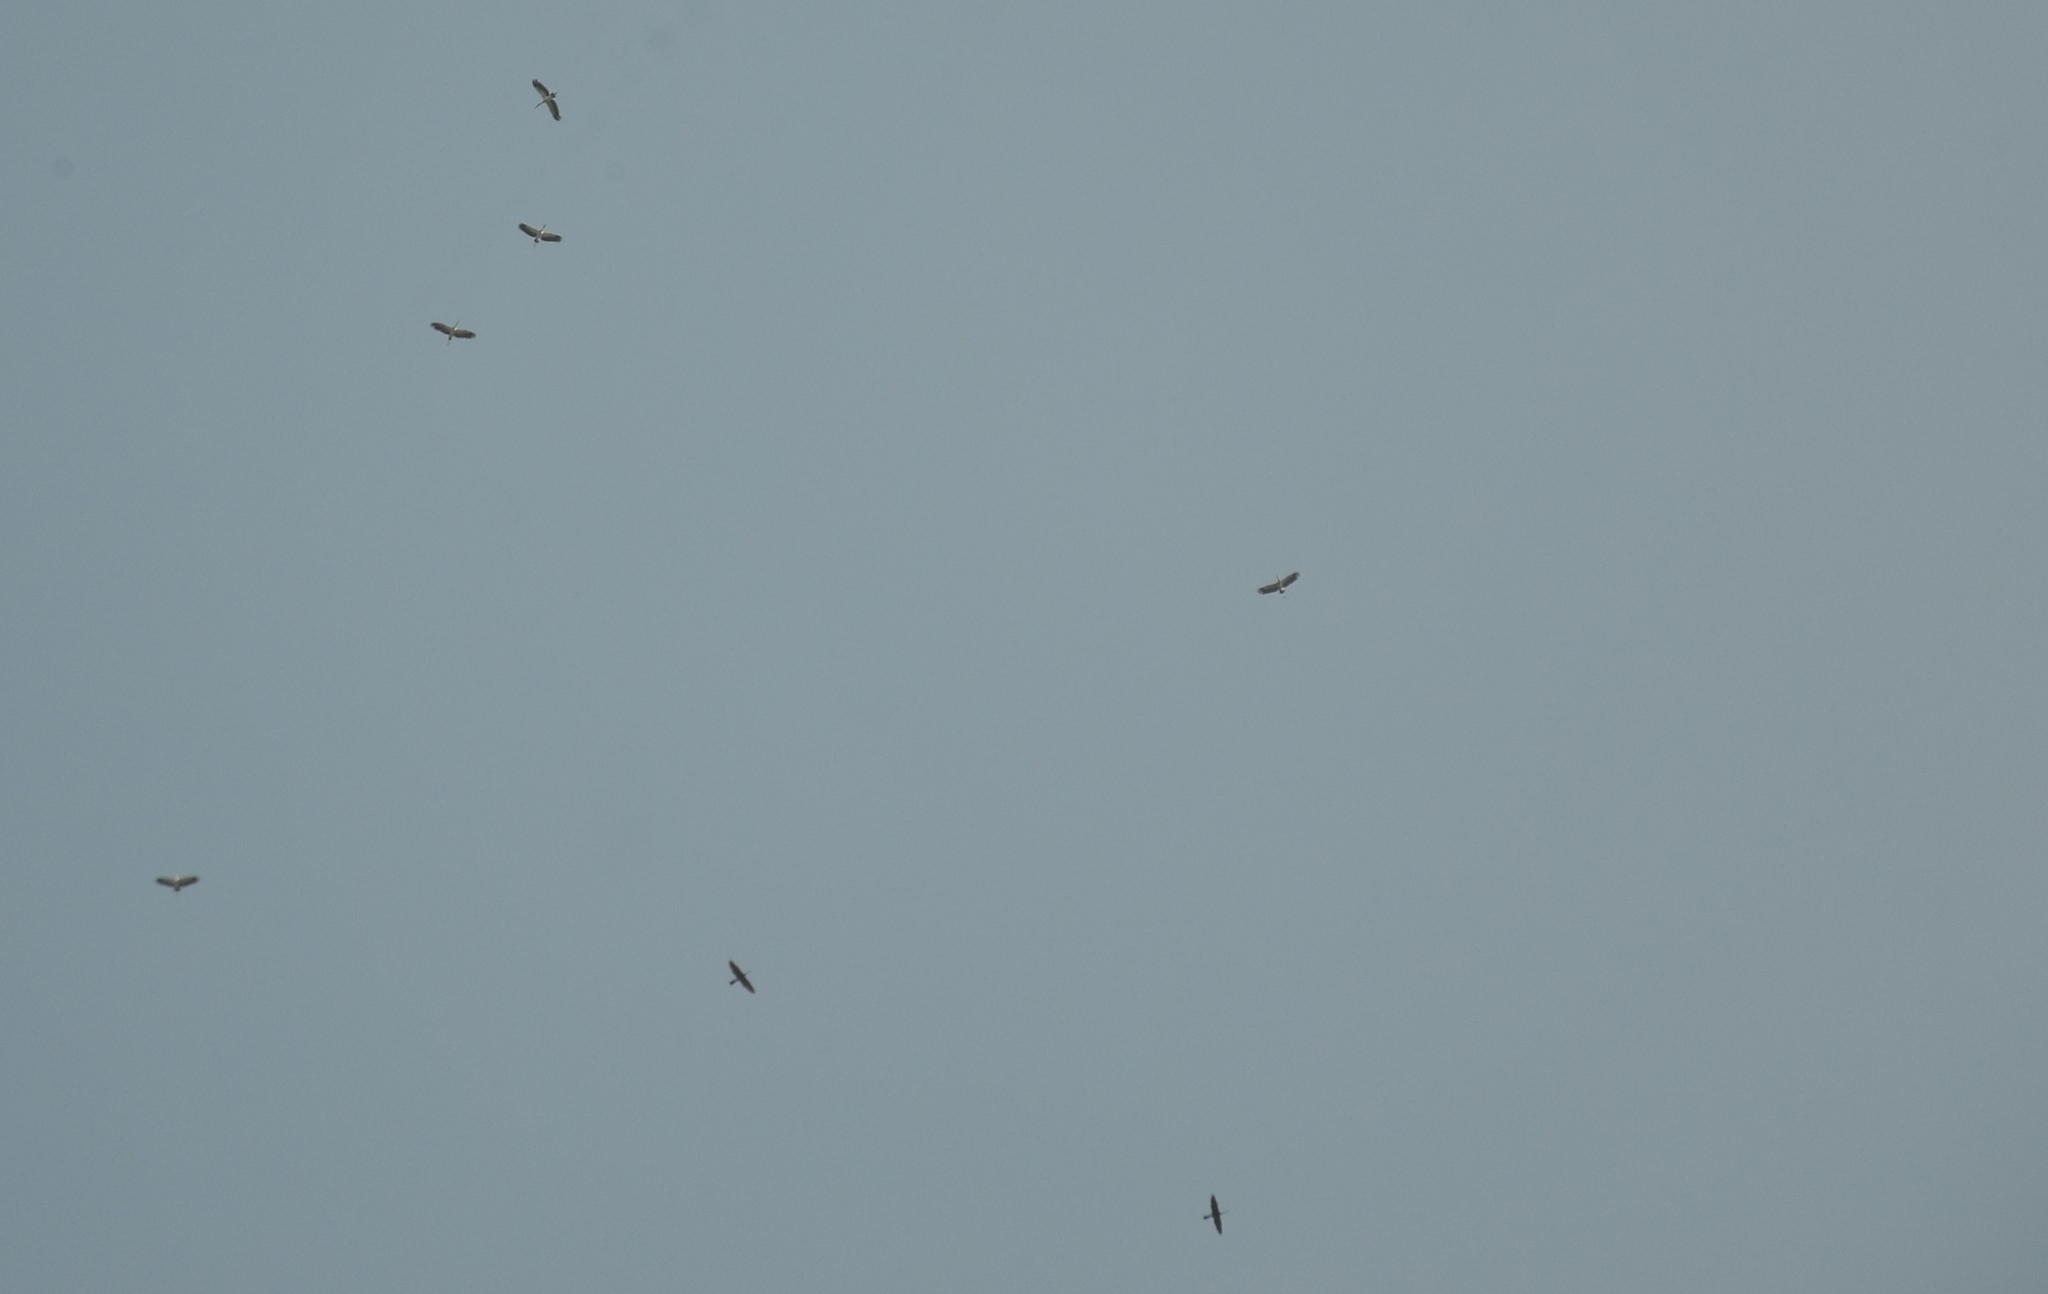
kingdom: Animalia
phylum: Chordata
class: Aves
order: Ciconiiformes
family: Ciconiidae
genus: Anastomus
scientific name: Anastomus oscitans
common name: Asian openbill
